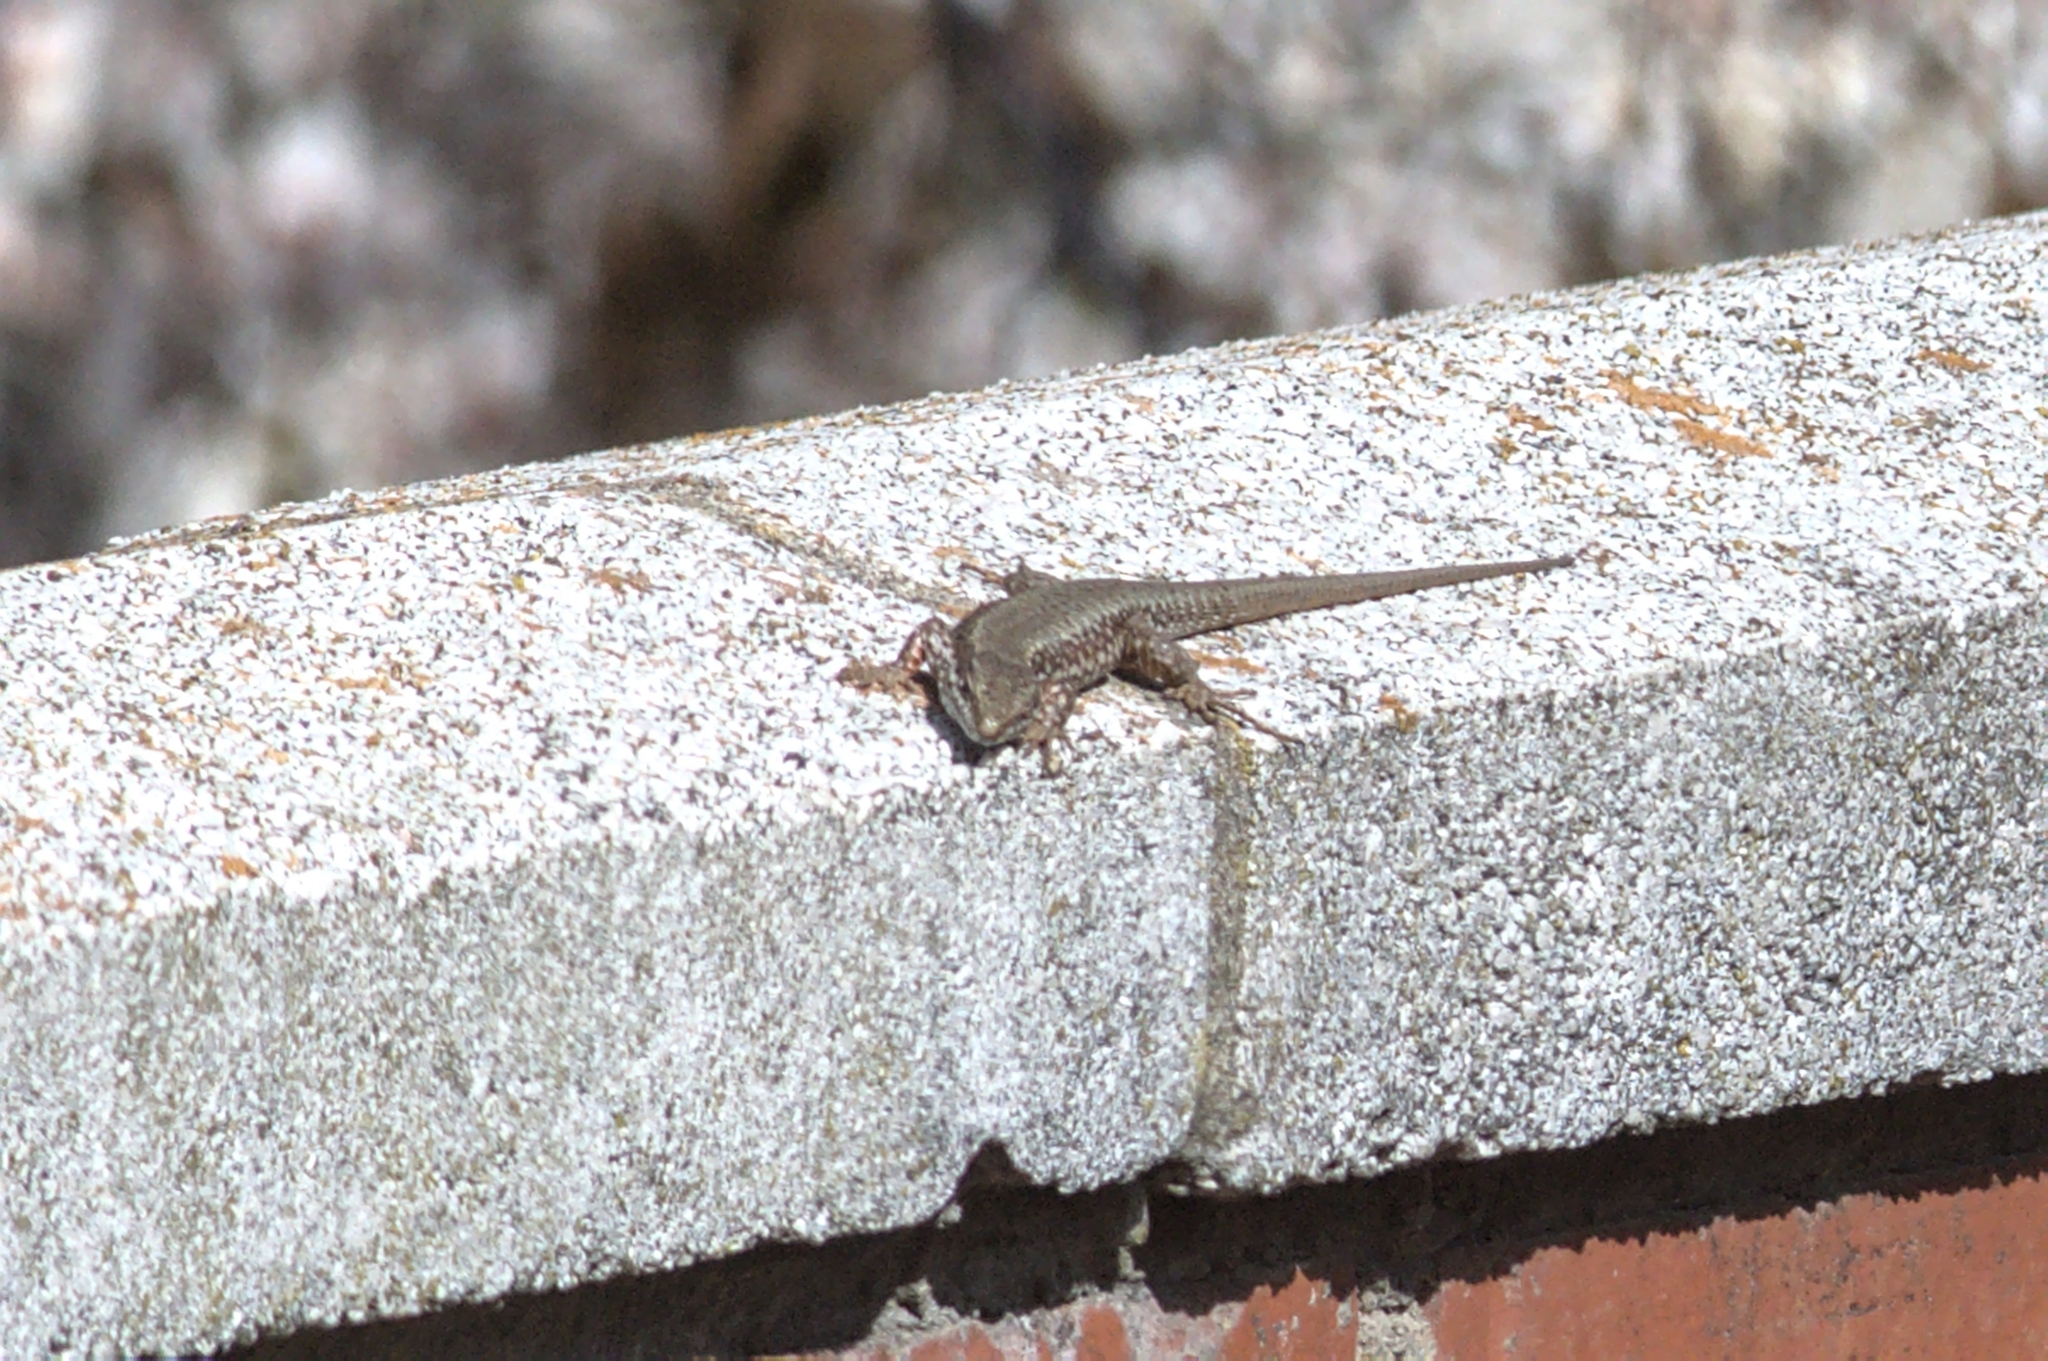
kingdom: Animalia
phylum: Chordata
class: Squamata
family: Lacertidae
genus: Podarcis
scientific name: Podarcis muralis
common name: Common wall lizard
